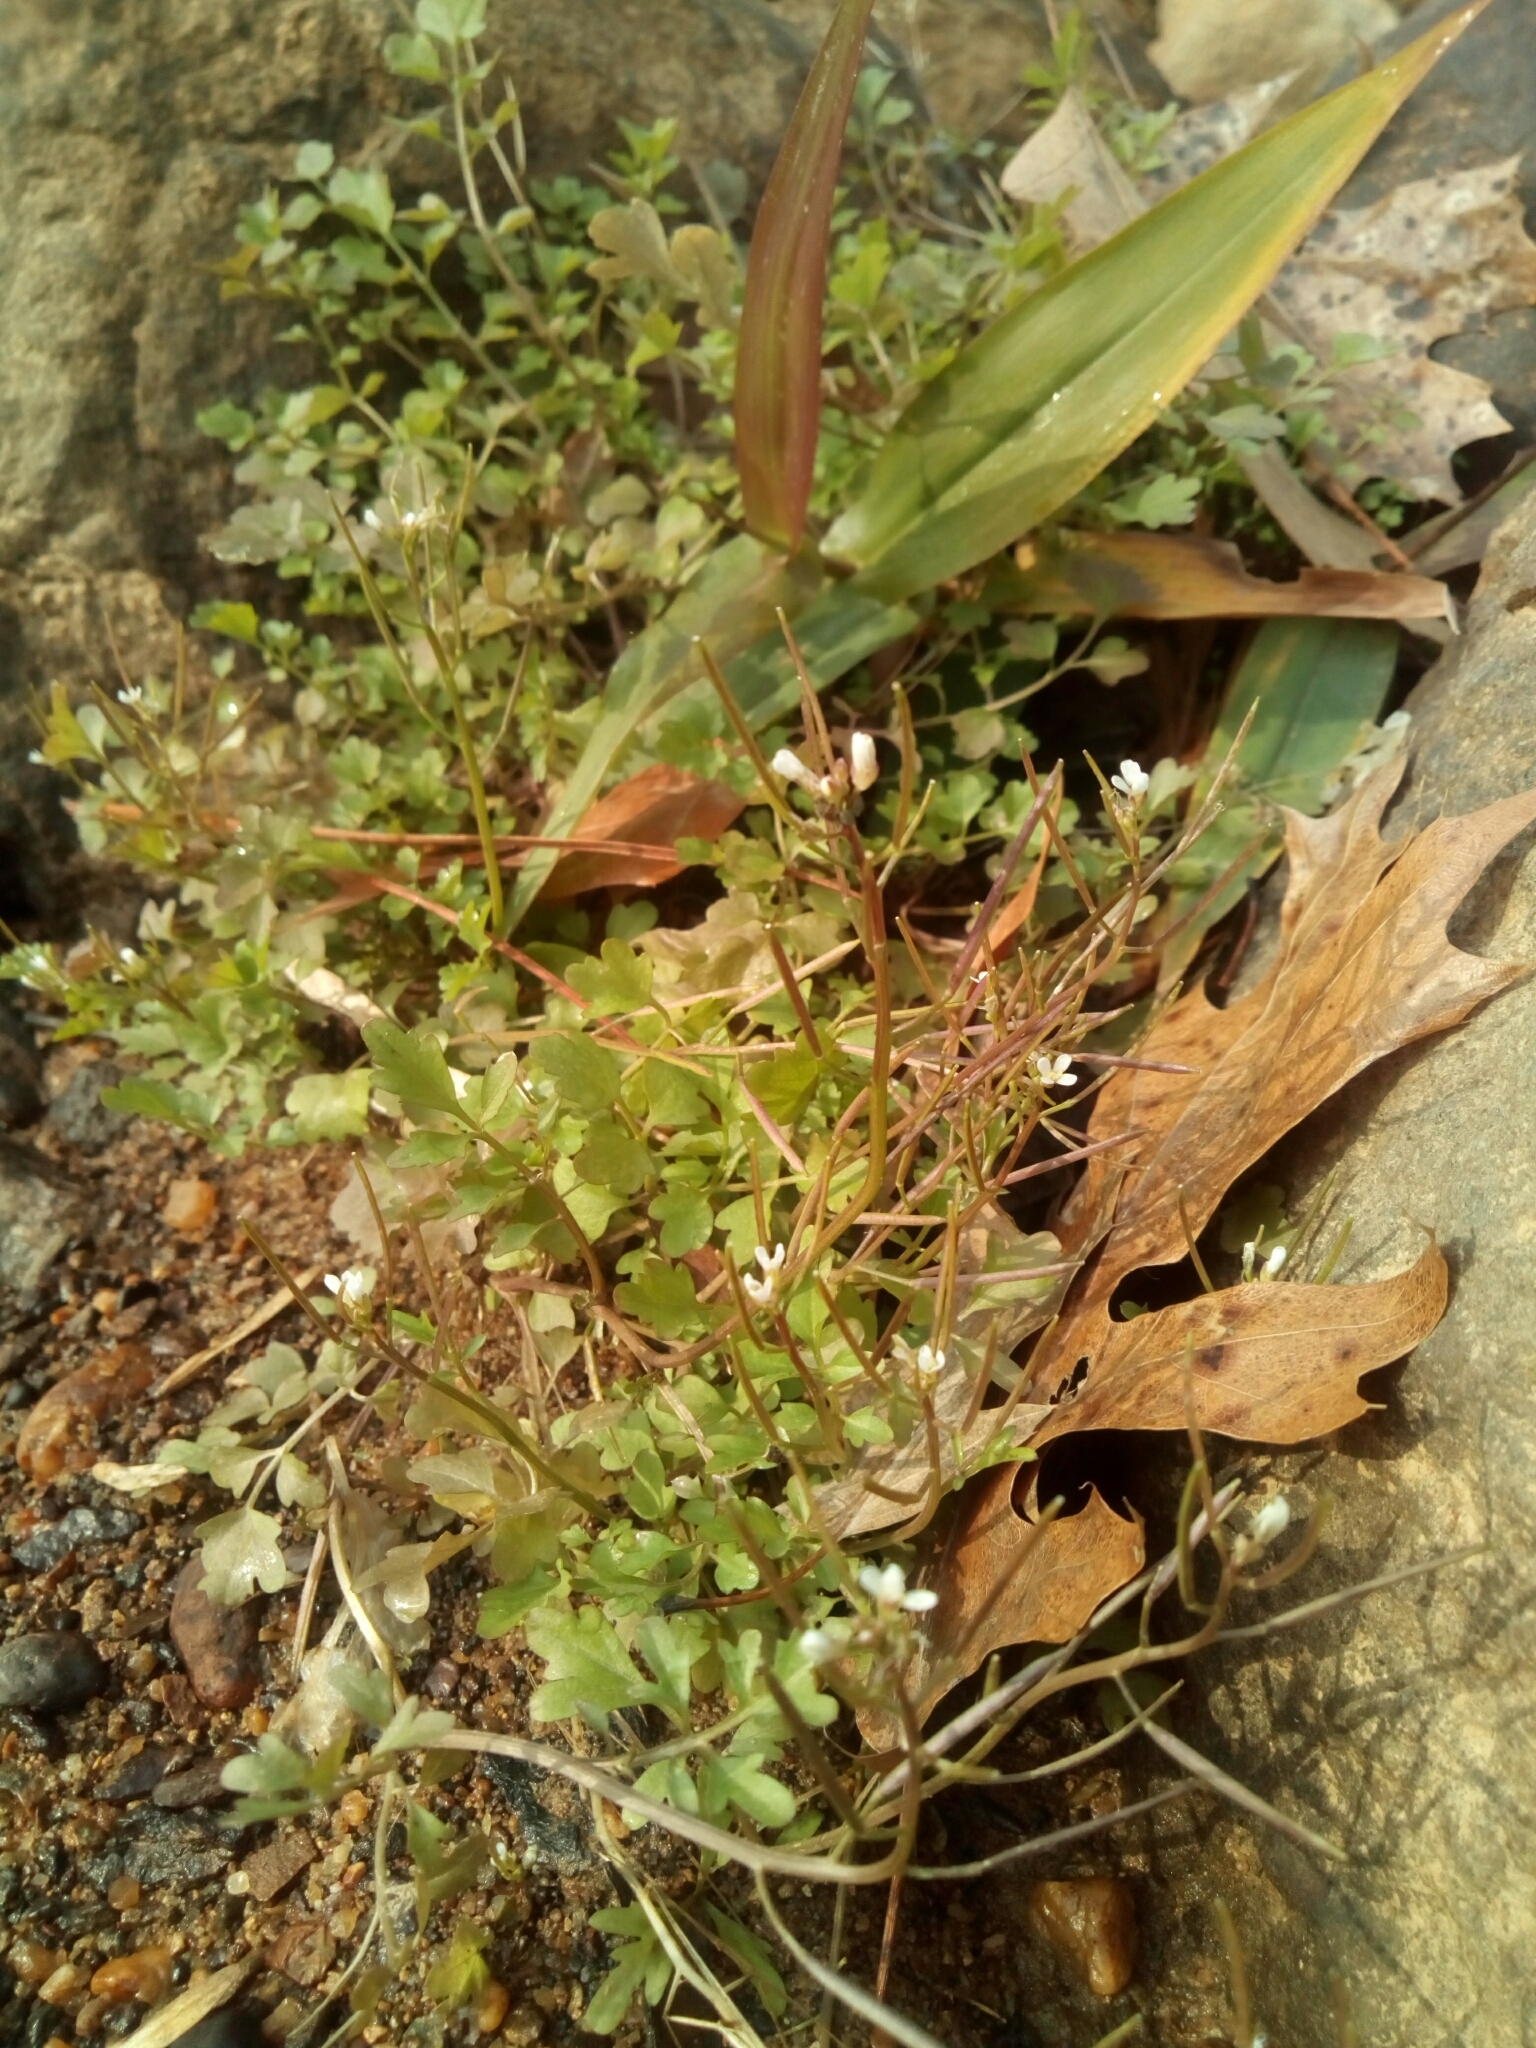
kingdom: Plantae
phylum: Tracheophyta
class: Magnoliopsida
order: Brassicales
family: Brassicaceae
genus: Cardamine
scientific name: Cardamine occulta
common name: Asian wavy bittercress
